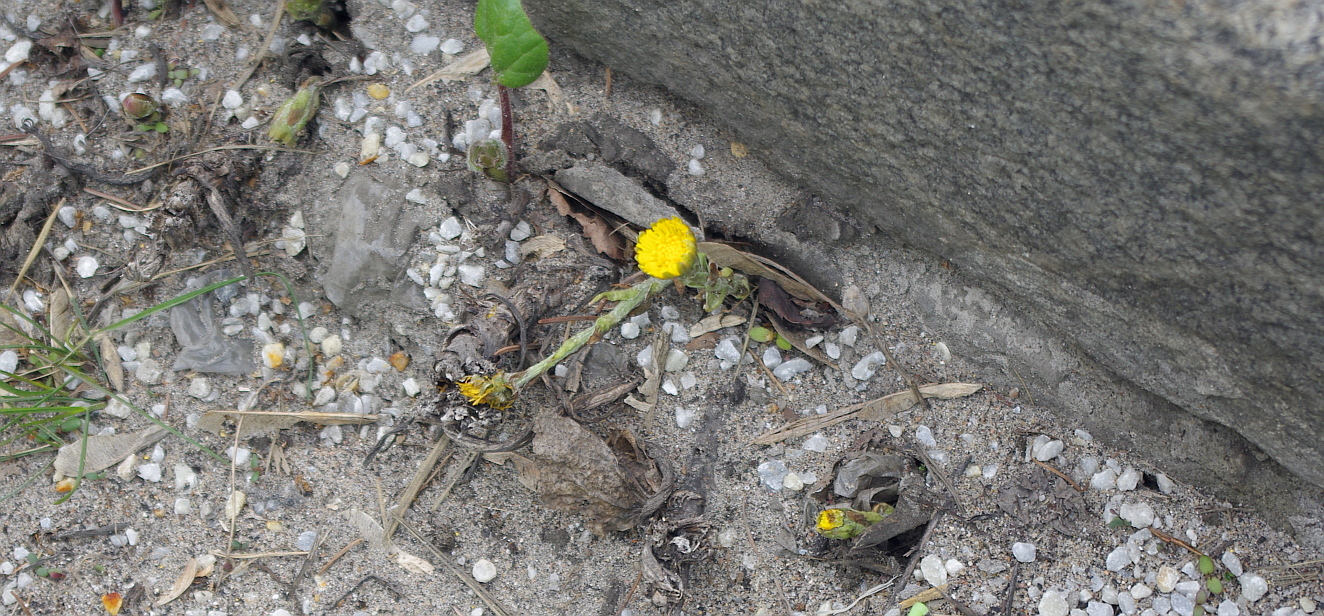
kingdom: Plantae
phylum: Tracheophyta
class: Magnoliopsida
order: Asterales
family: Asteraceae
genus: Tussilago
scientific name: Tussilago farfara
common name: Coltsfoot
